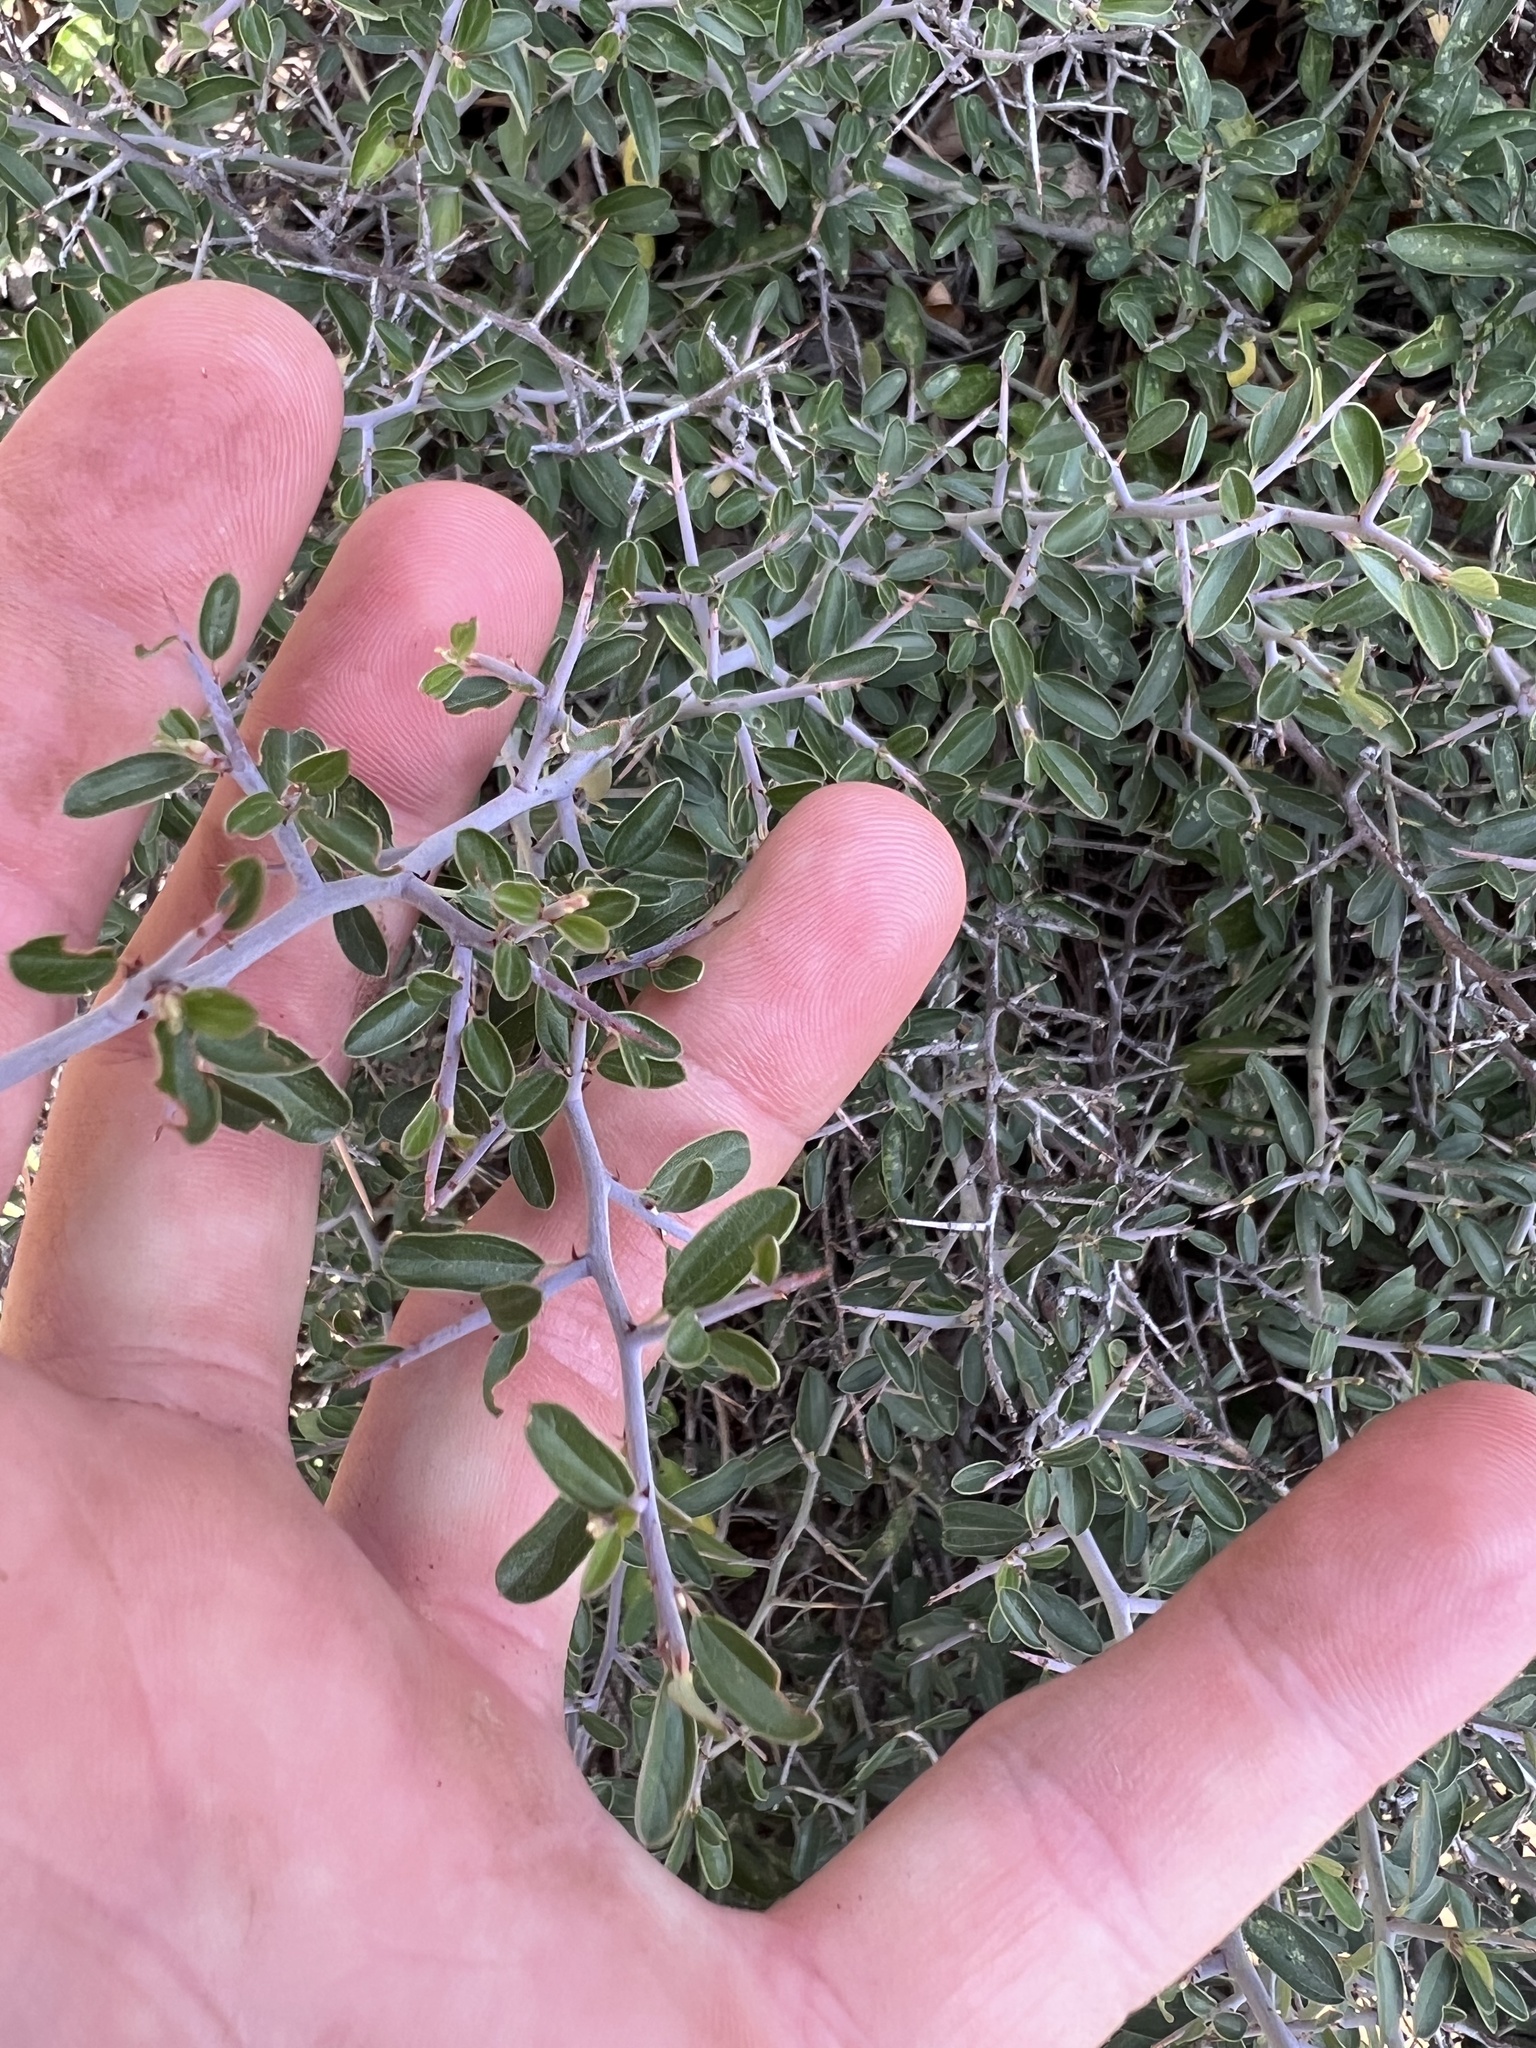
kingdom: Plantae
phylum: Tracheophyta
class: Magnoliopsida
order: Rosales
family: Rhamnaceae
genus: Ceanothus
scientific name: Ceanothus fendleri
